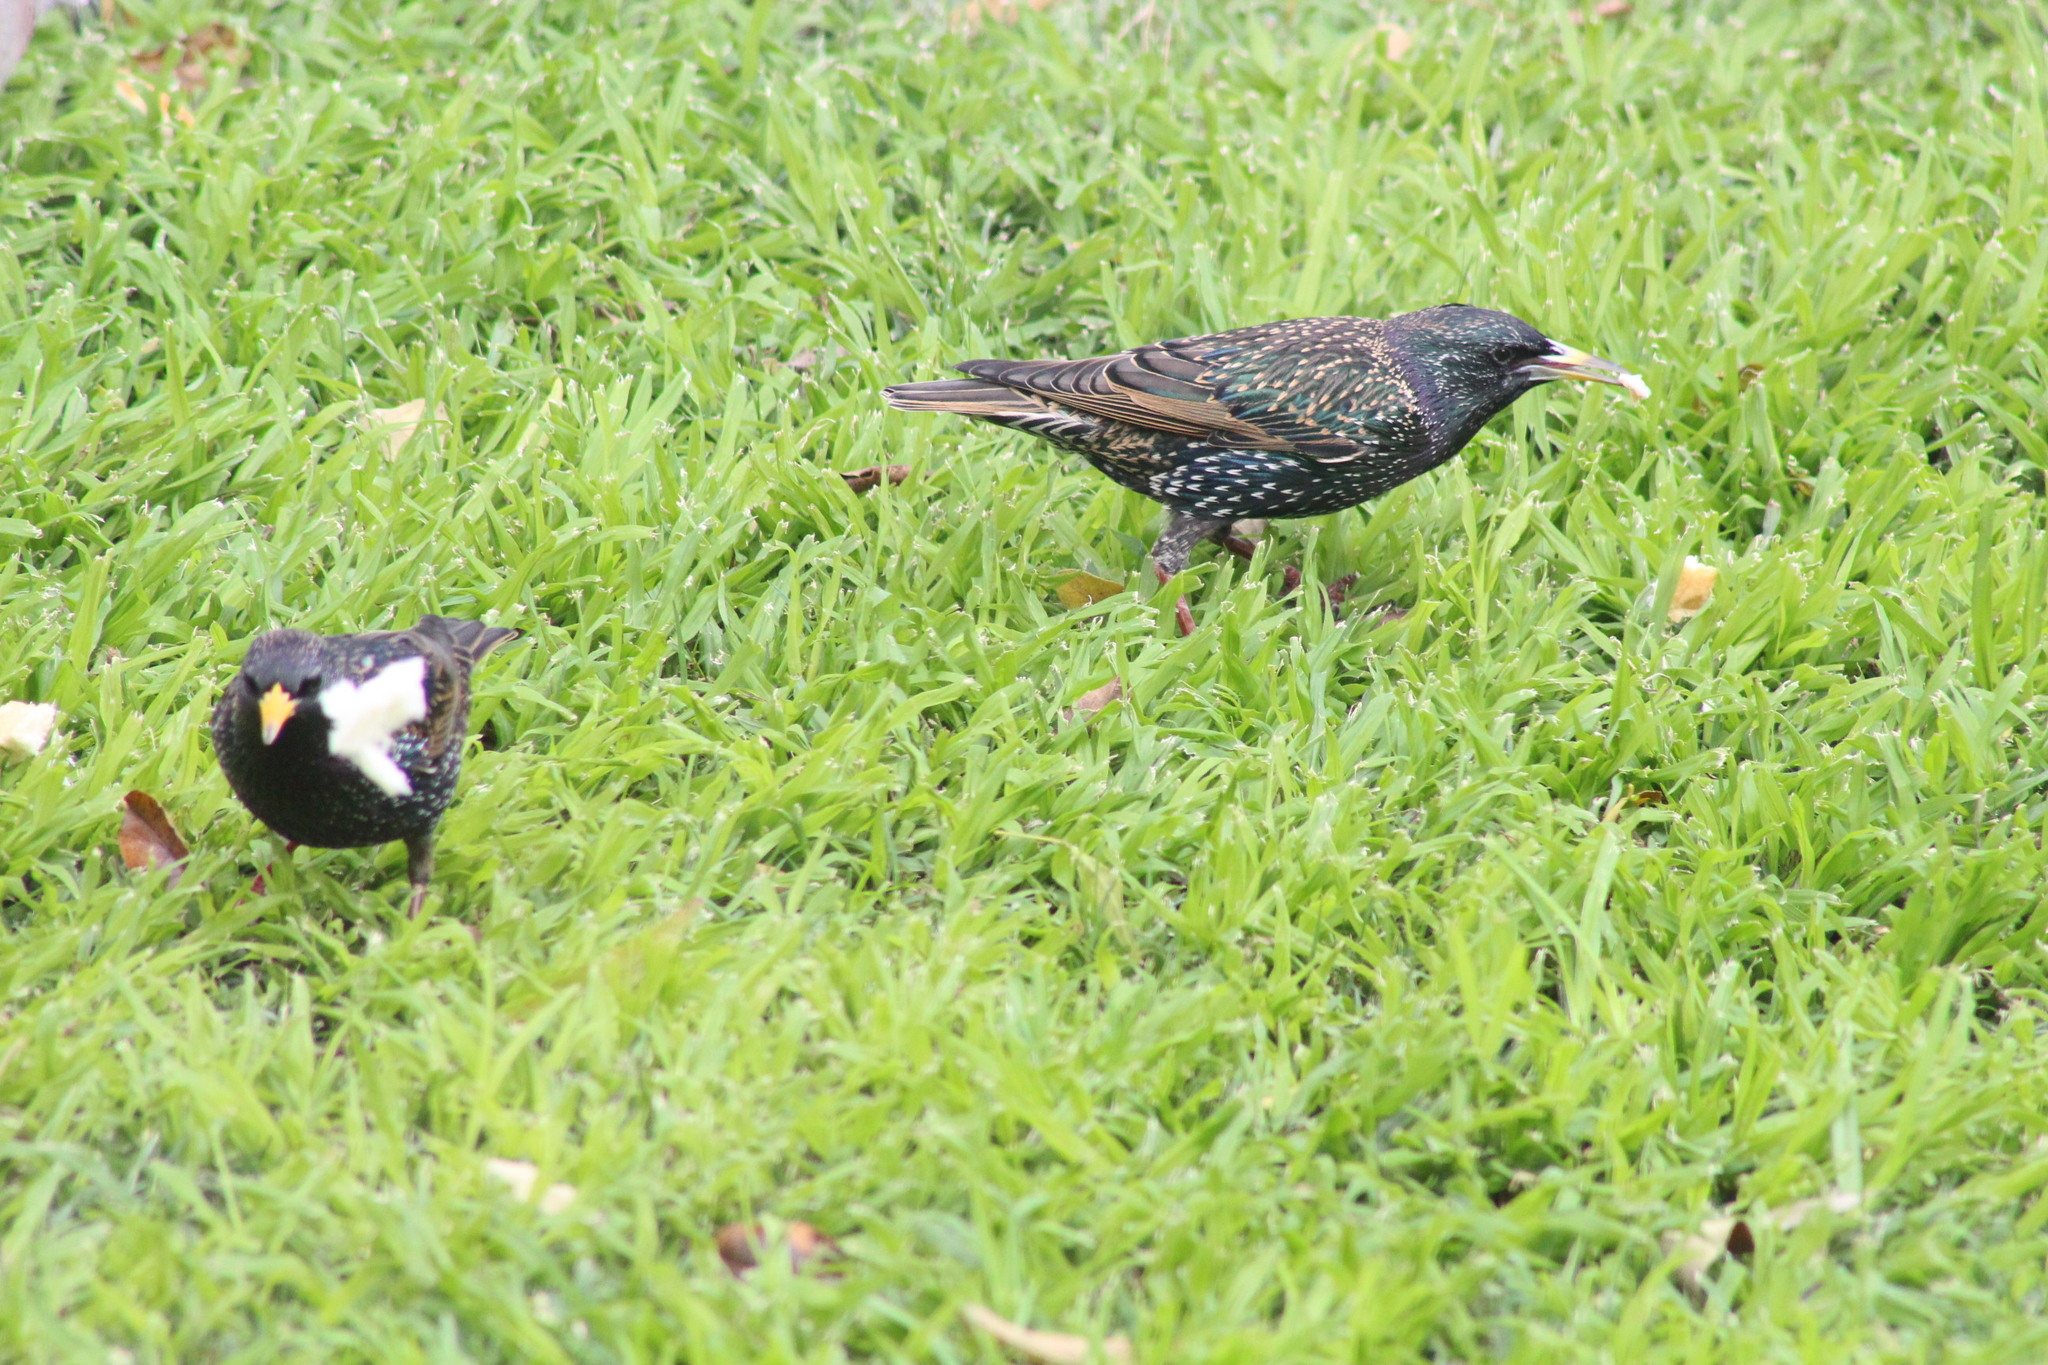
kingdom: Animalia
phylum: Chordata
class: Aves
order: Passeriformes
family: Sturnidae
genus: Sturnus
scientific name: Sturnus vulgaris
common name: Common starling
